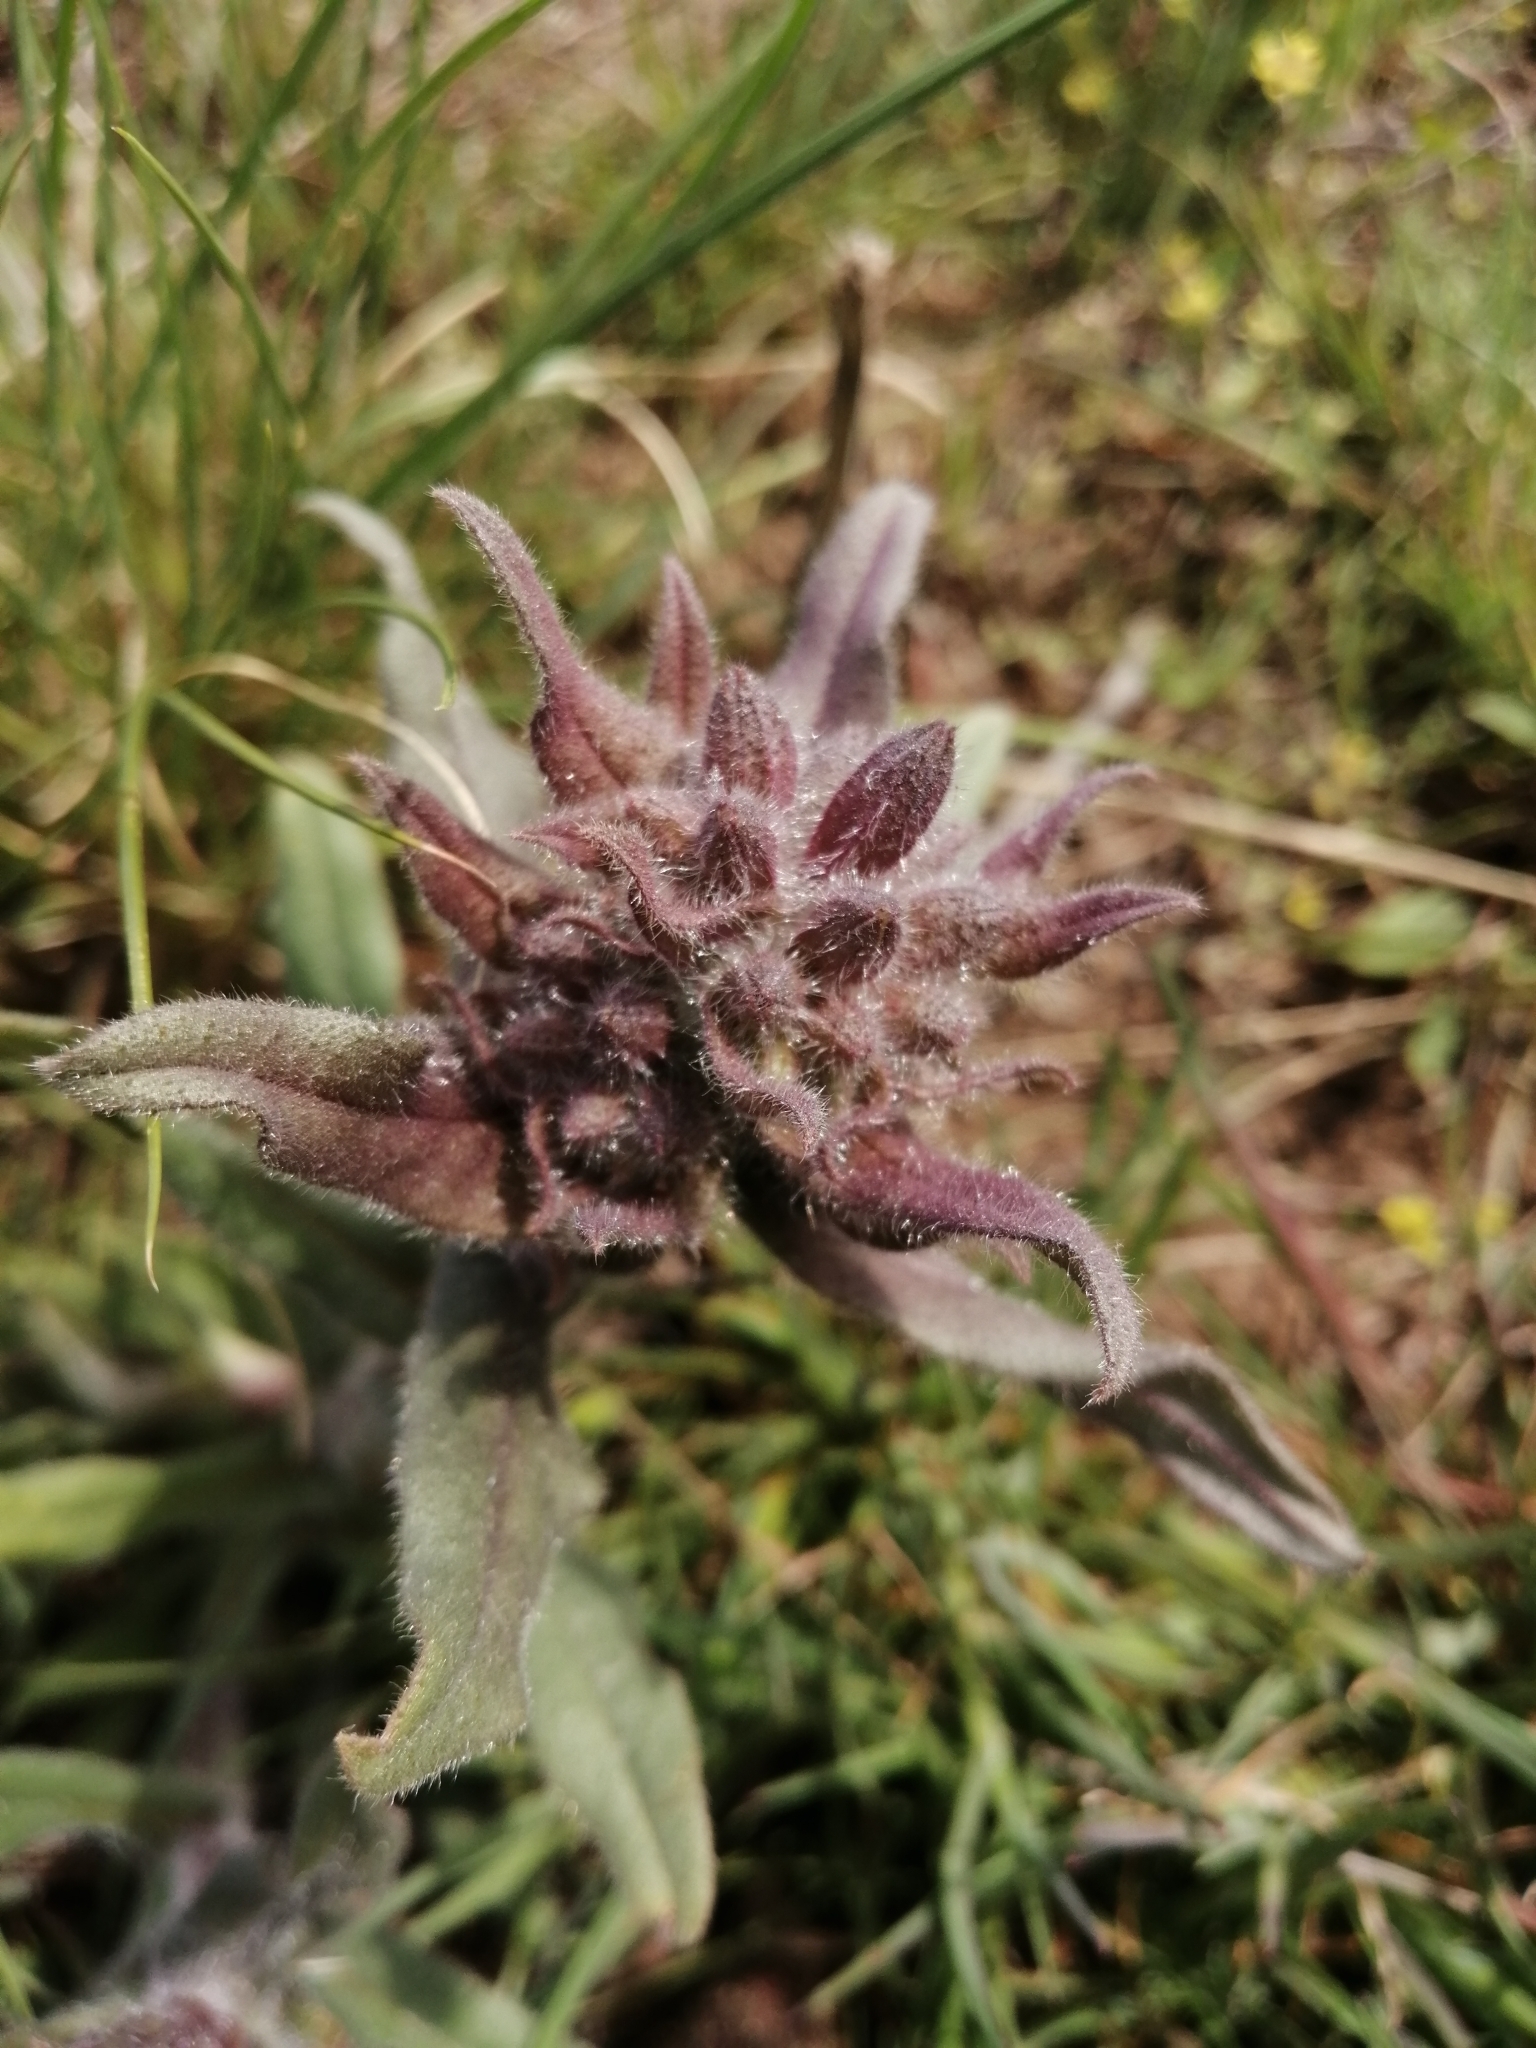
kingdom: Plantae
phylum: Tracheophyta
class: Magnoliopsida
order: Boraginales
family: Boraginaceae
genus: Nonea
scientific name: Nonea pulla
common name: Brown nonea
